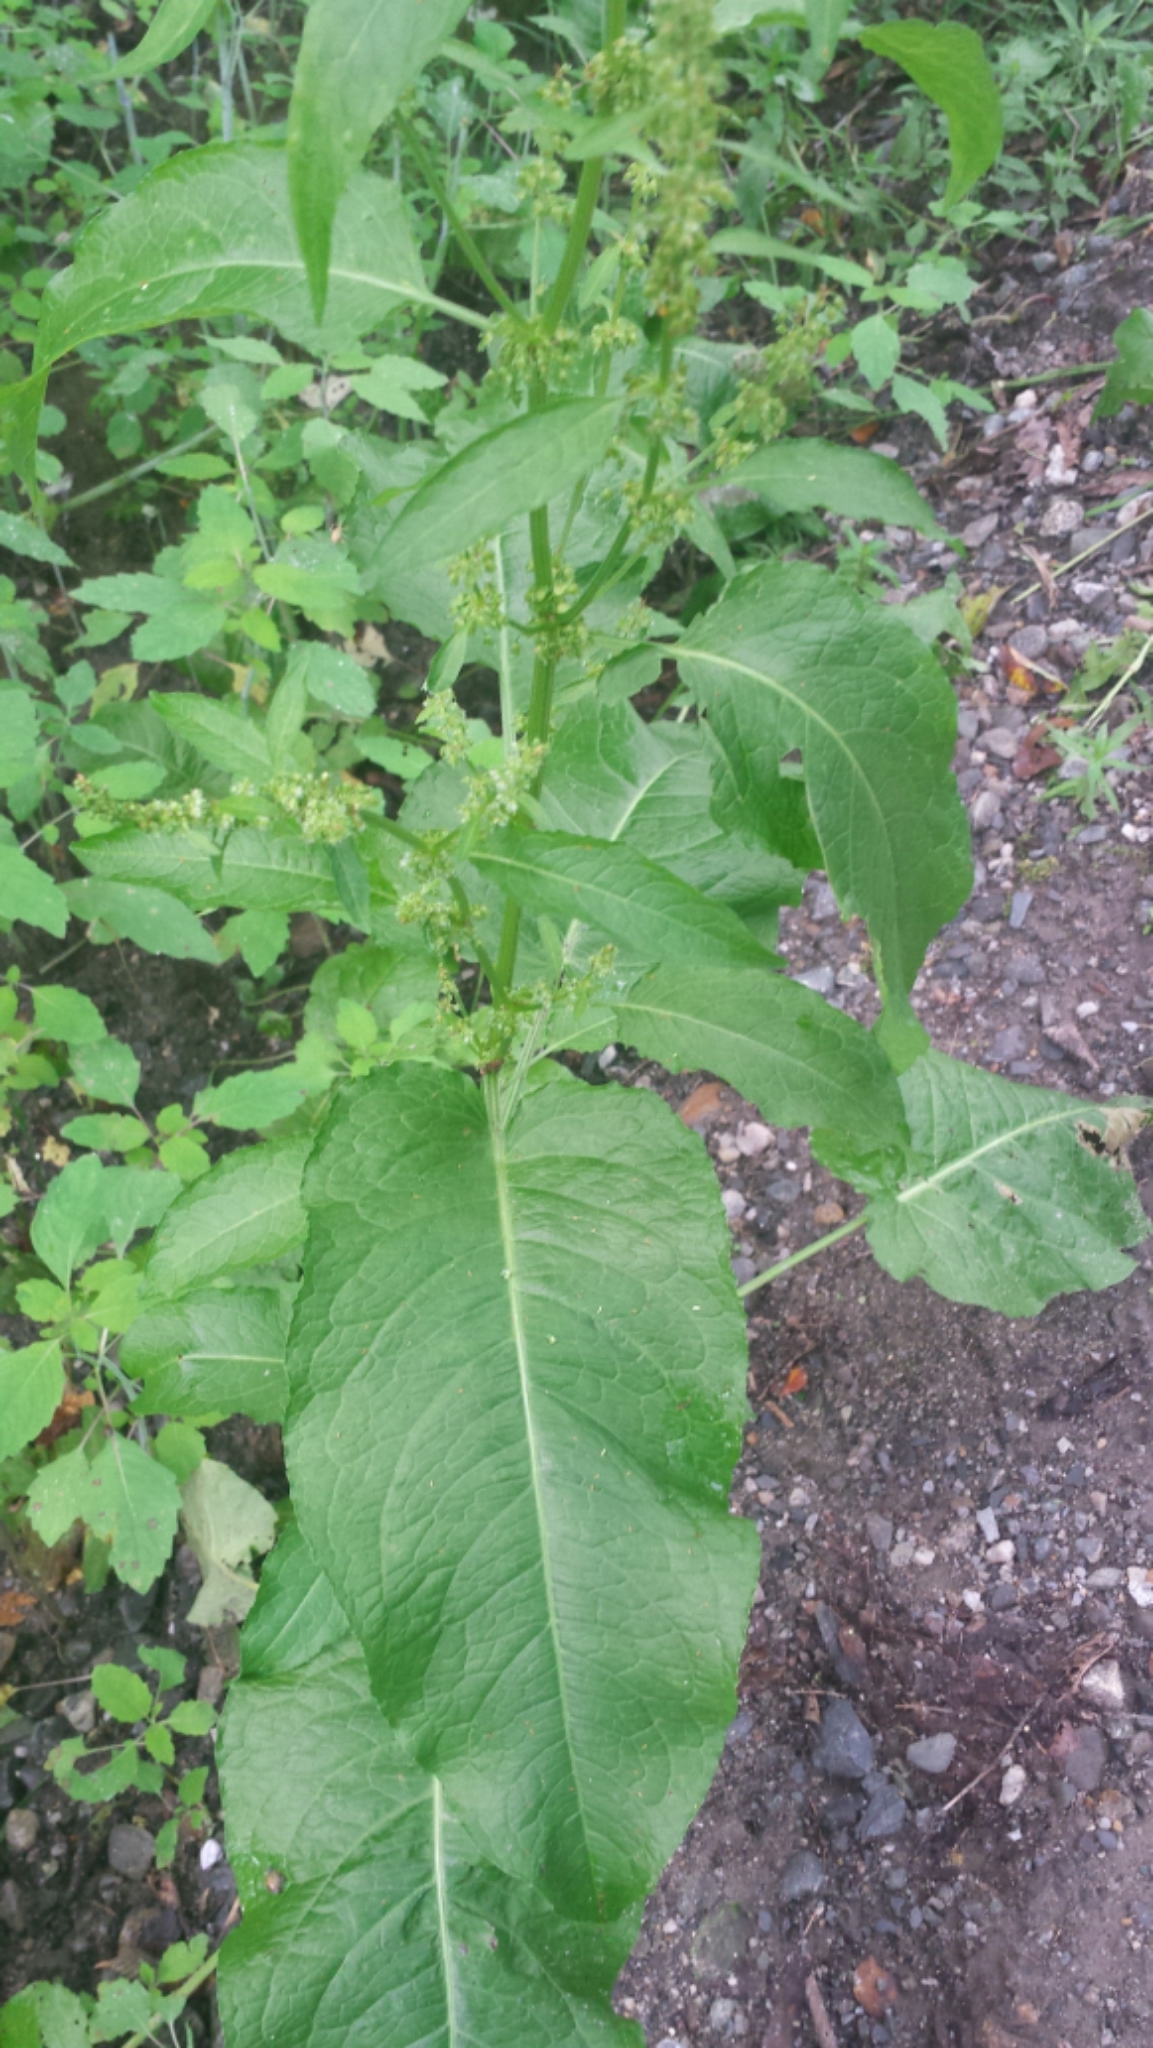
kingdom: Plantae
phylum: Tracheophyta
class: Magnoliopsida
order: Caryophyllales
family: Polygonaceae
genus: Rumex
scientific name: Rumex obtusifolius
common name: Bitter dock
